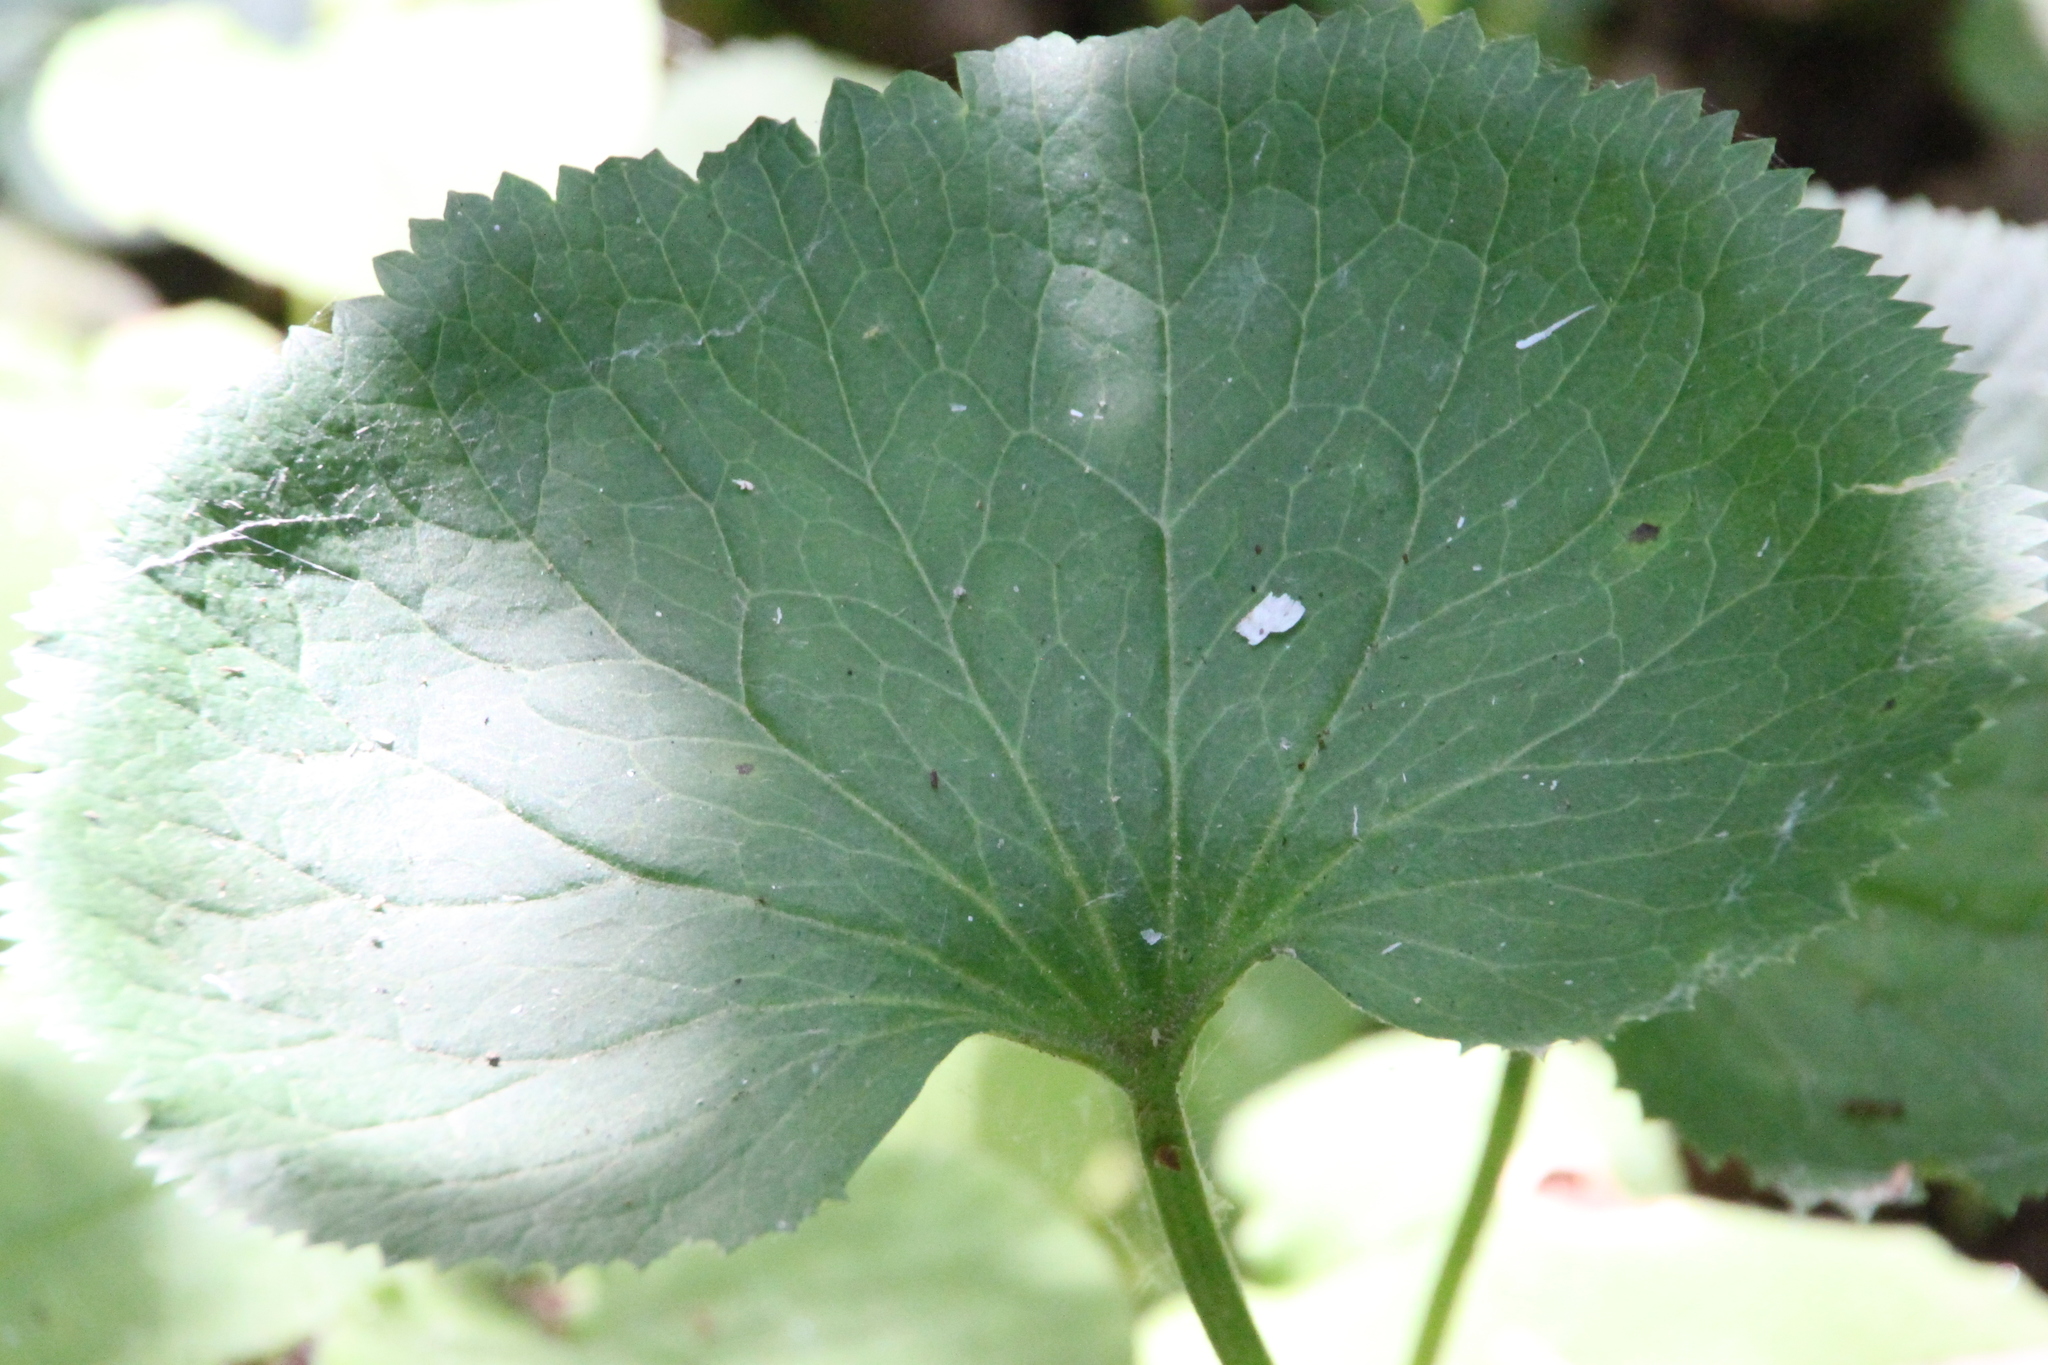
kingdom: Plantae
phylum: Tracheophyta
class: Magnoliopsida
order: Ranunculales
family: Ranunculaceae
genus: Ranunculus
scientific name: Ranunculus cassubicus
